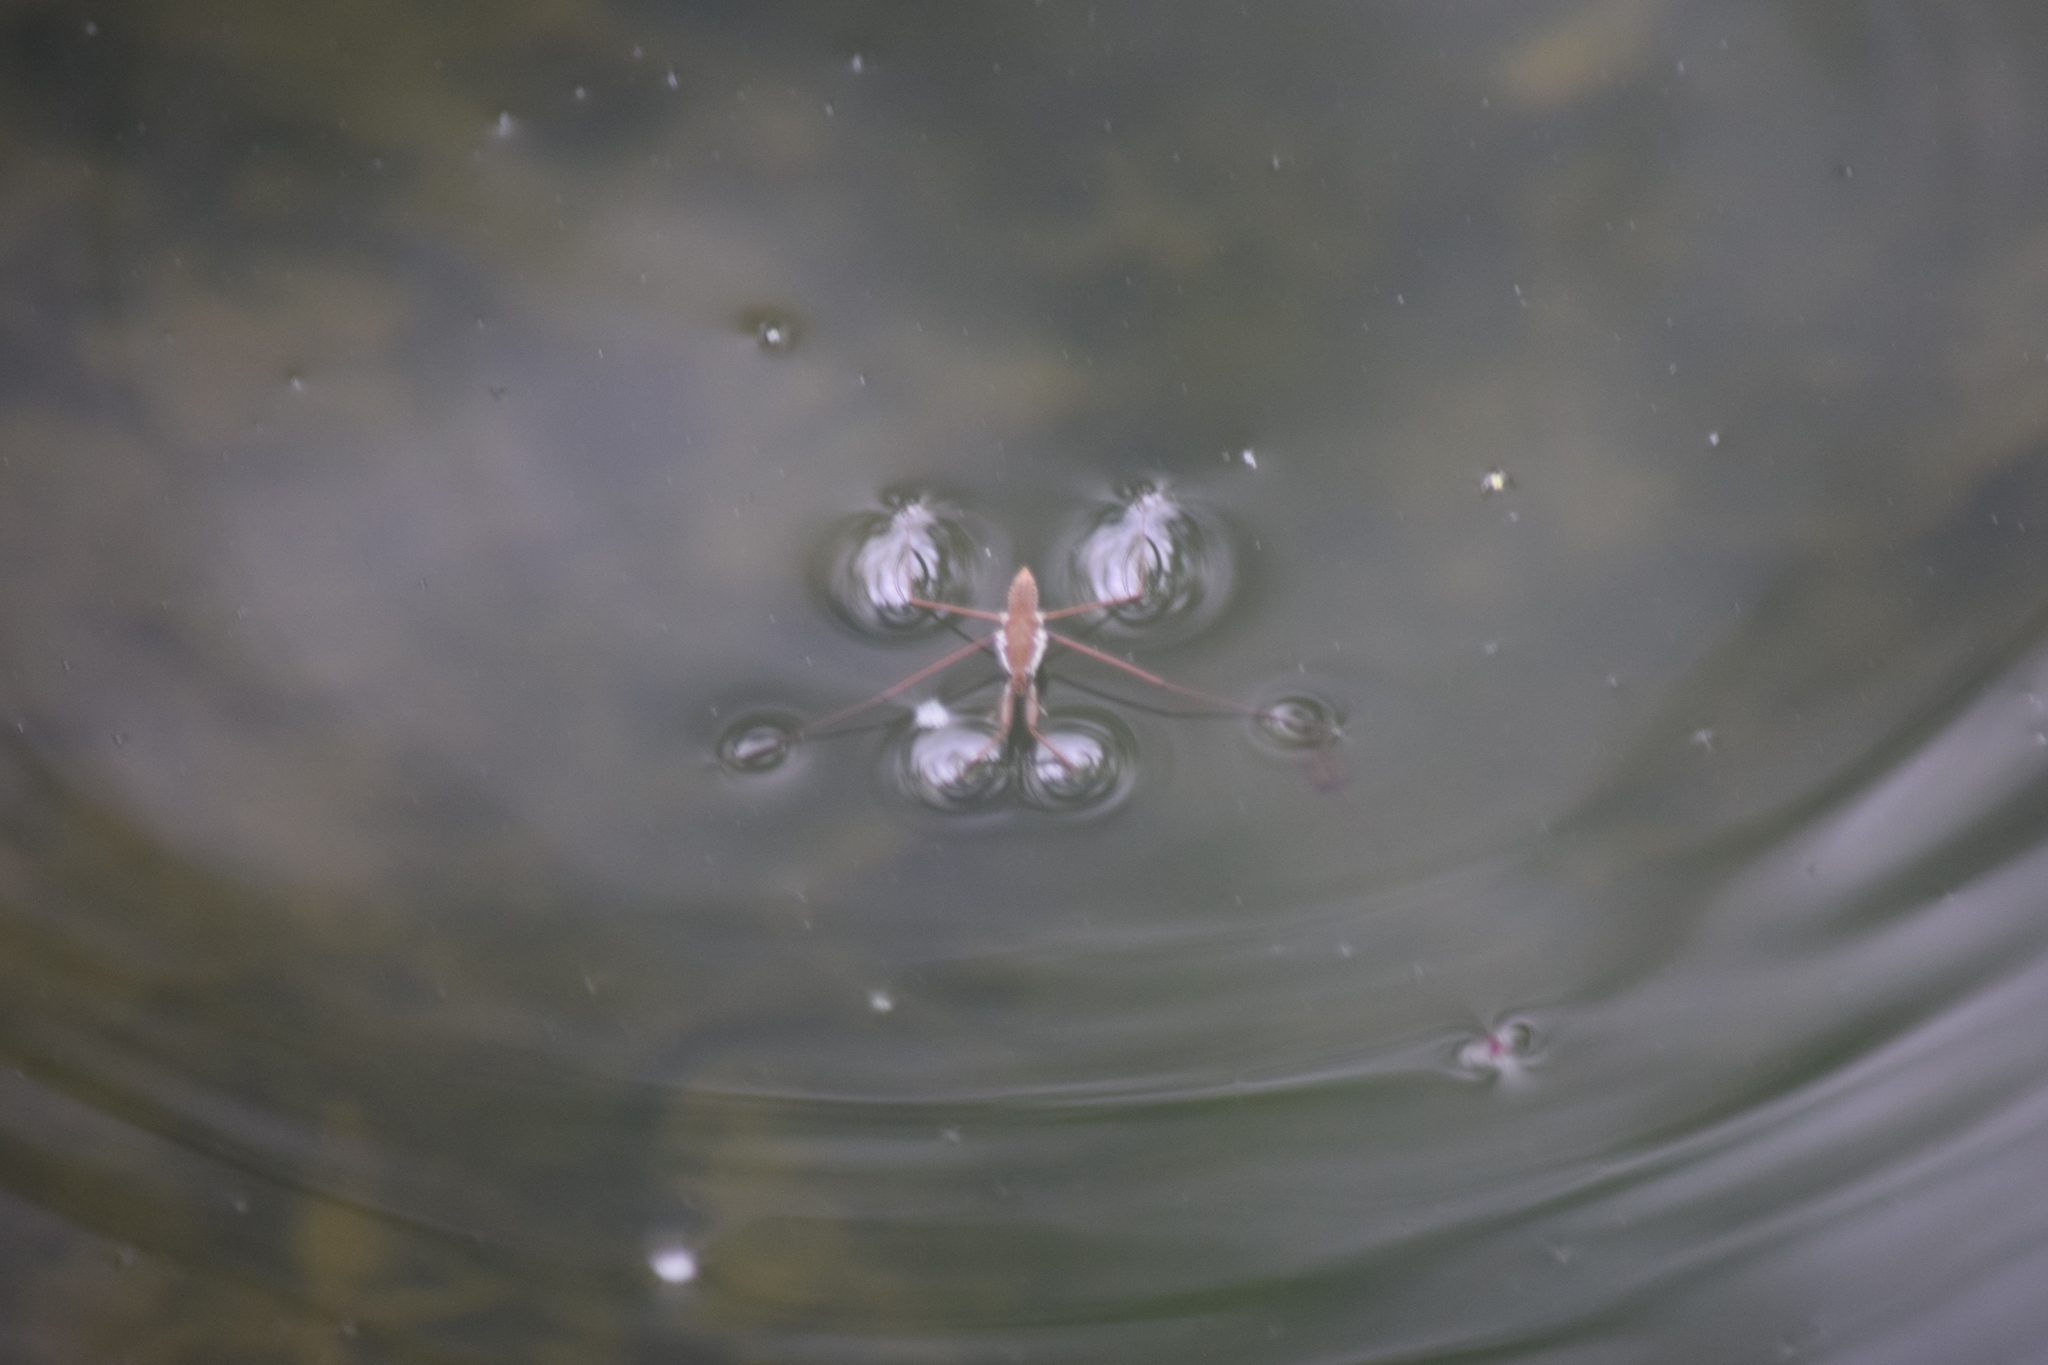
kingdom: Animalia
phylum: Arthropoda
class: Insecta
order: Hemiptera
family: Gerridae
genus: Aquarius
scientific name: Aquarius remigis
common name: Common water strider
